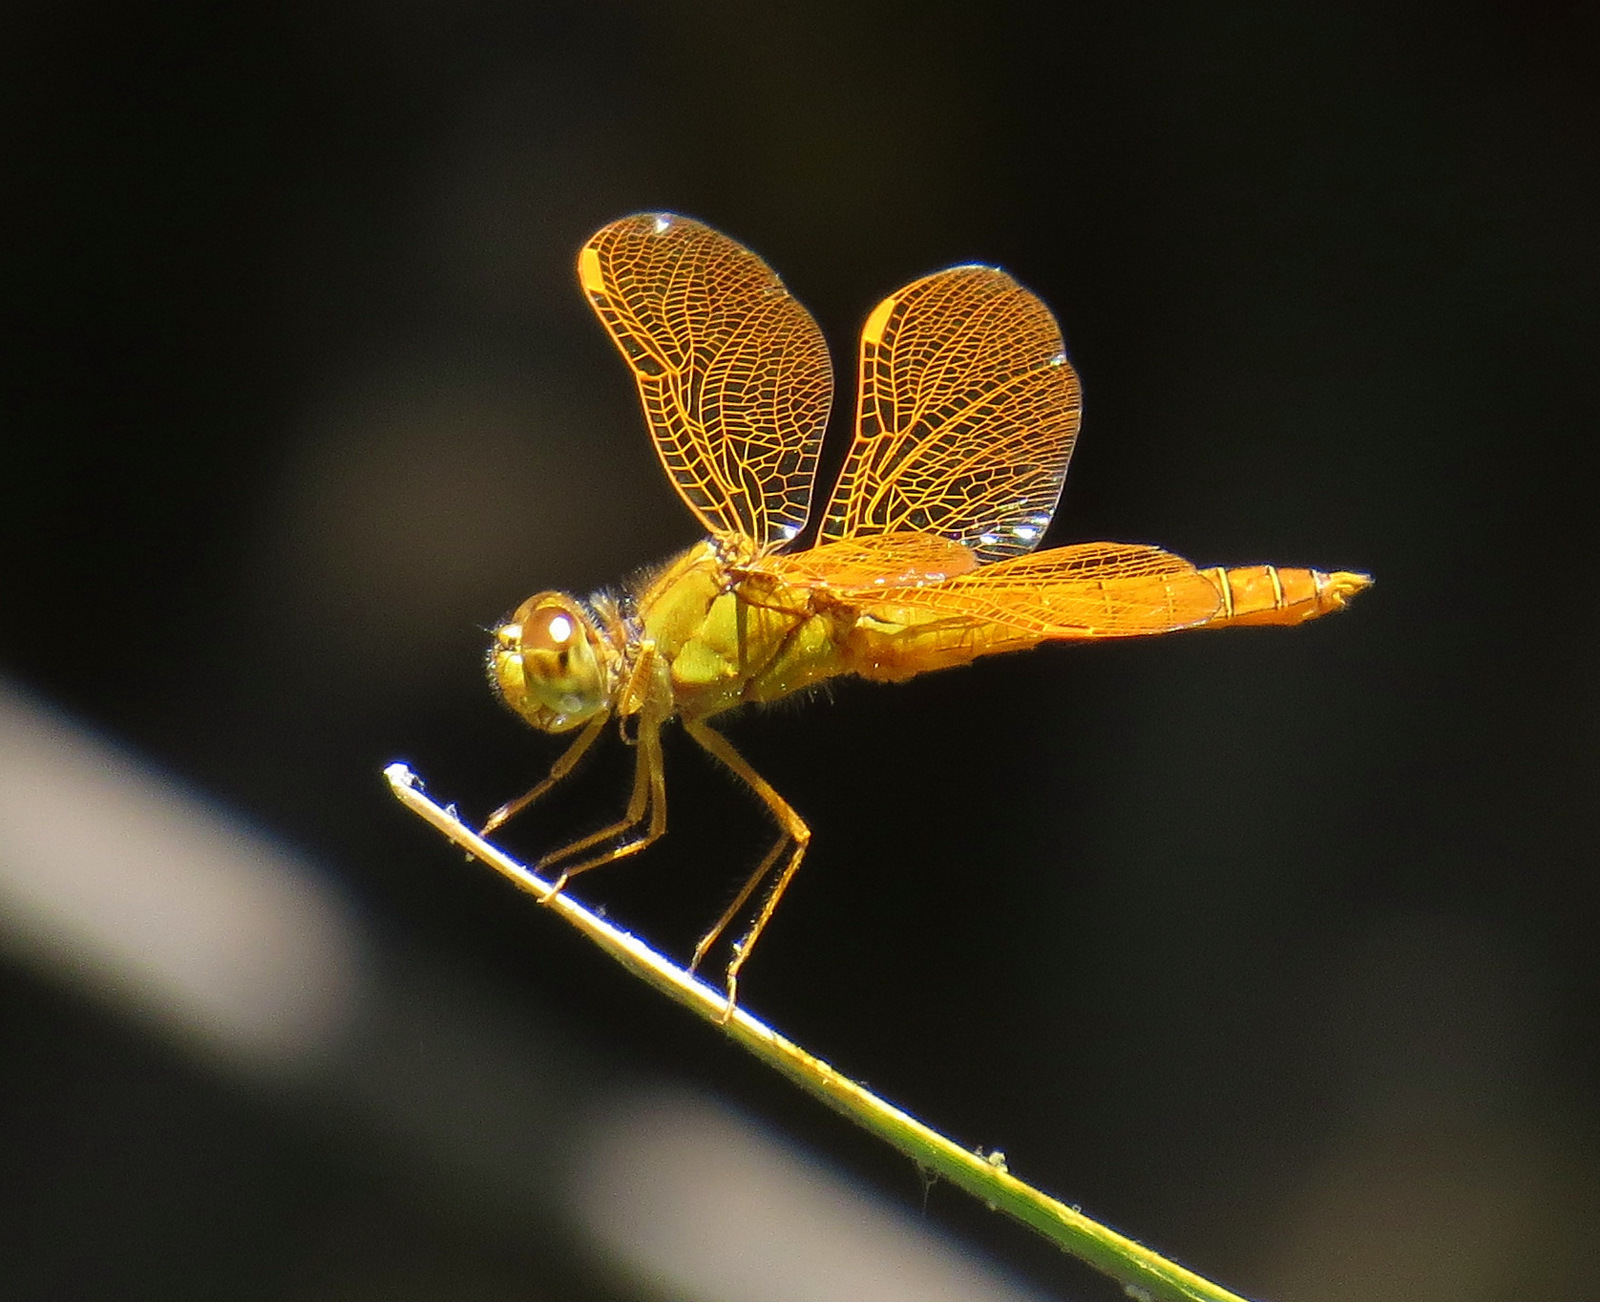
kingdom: Animalia
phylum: Arthropoda
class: Insecta
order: Odonata
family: Libellulidae
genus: Perithemis
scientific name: Perithemis intensa
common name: Mexican amberwing
